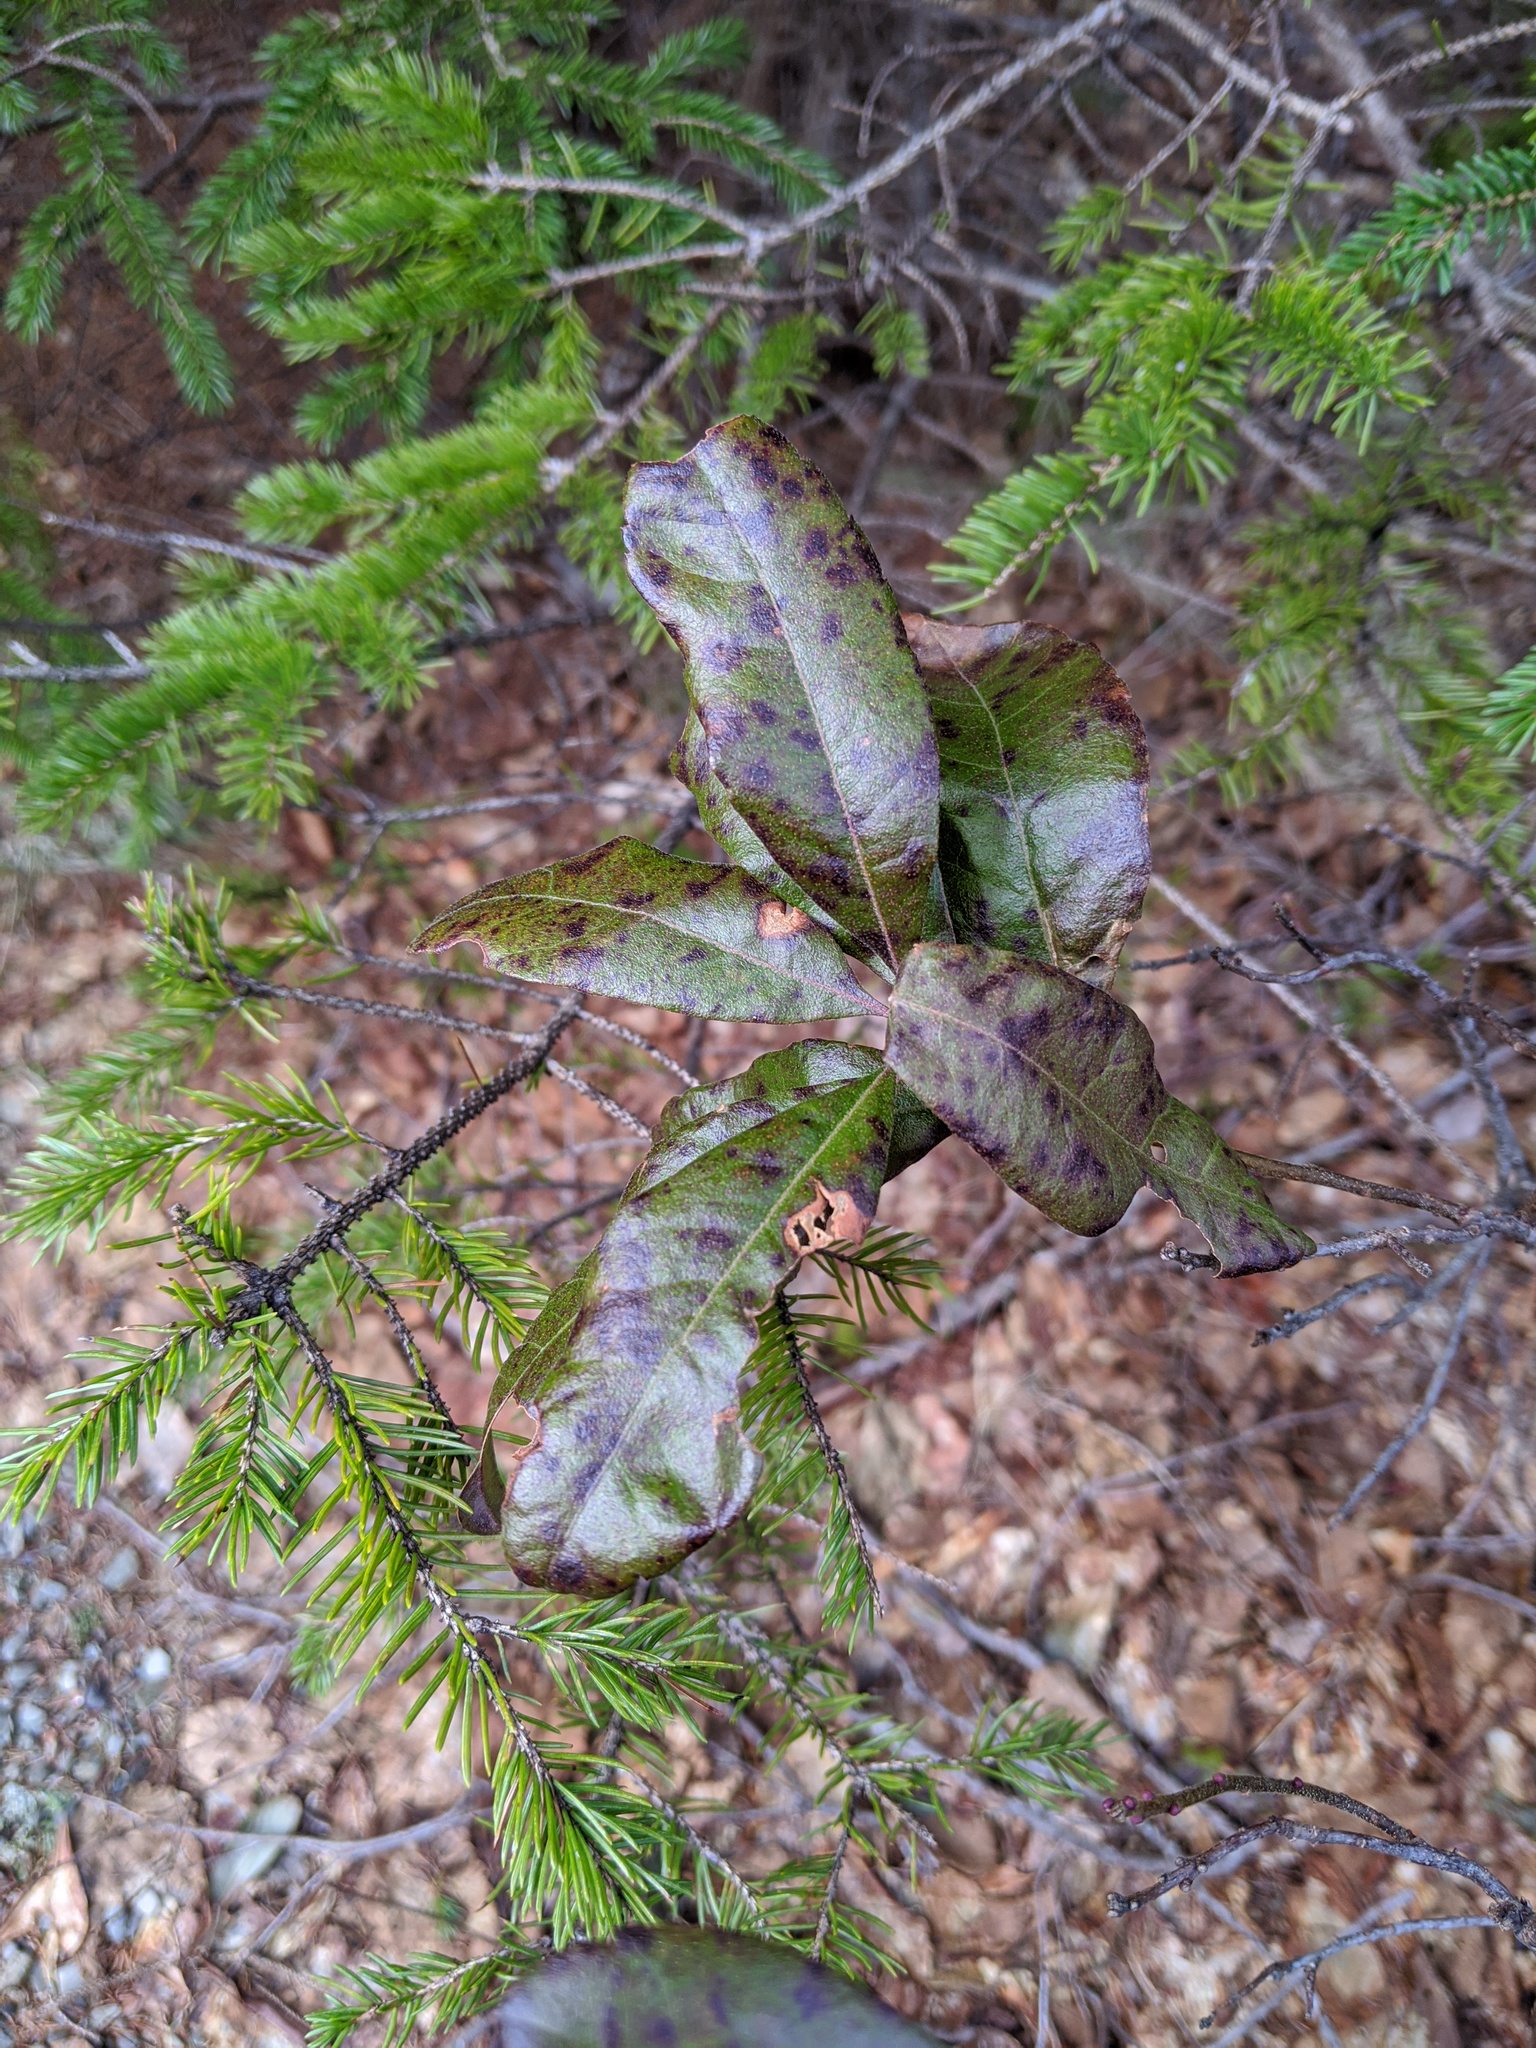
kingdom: Plantae
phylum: Tracheophyta
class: Magnoliopsida
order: Fagales
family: Myricaceae
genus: Morella
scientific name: Morella pensylvanica
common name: Northern bayberry
